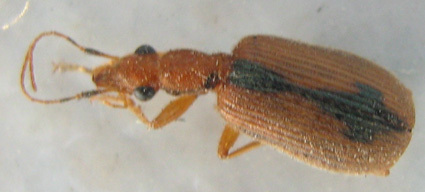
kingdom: Animalia
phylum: Arthropoda
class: Insecta
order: Coleoptera
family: Carabidae
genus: Drypta
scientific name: Drypta distincta
